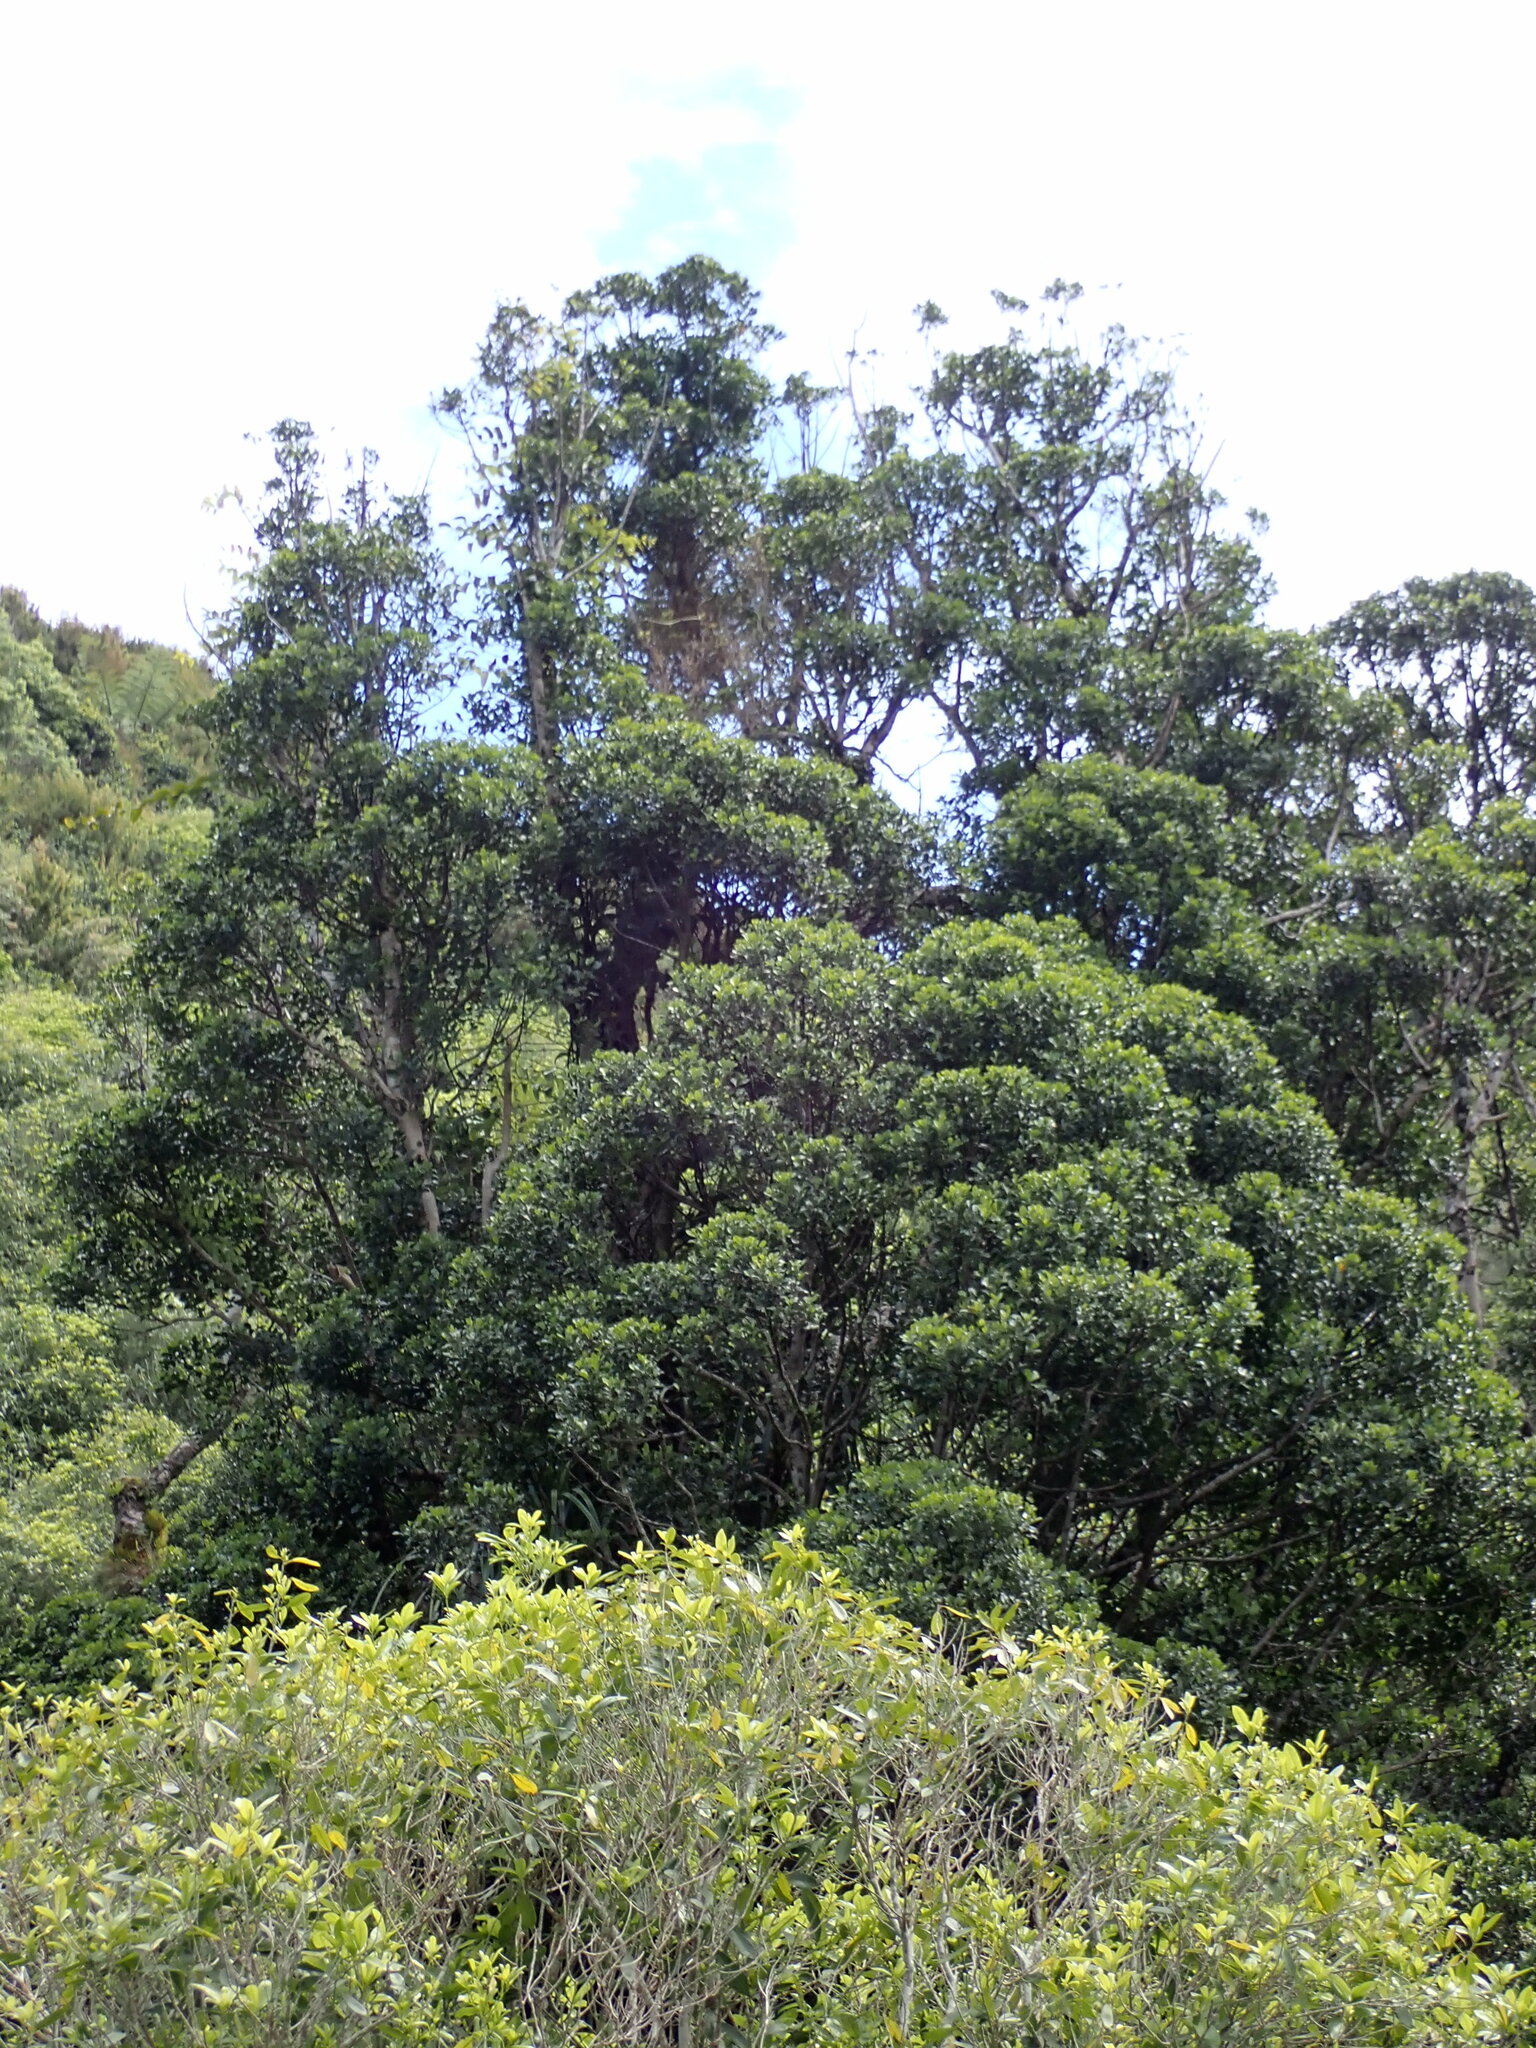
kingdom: Plantae
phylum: Tracheophyta
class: Magnoliopsida
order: Laurales
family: Atherospermataceae
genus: Laurelia
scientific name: Laurelia novae-zelandiae
